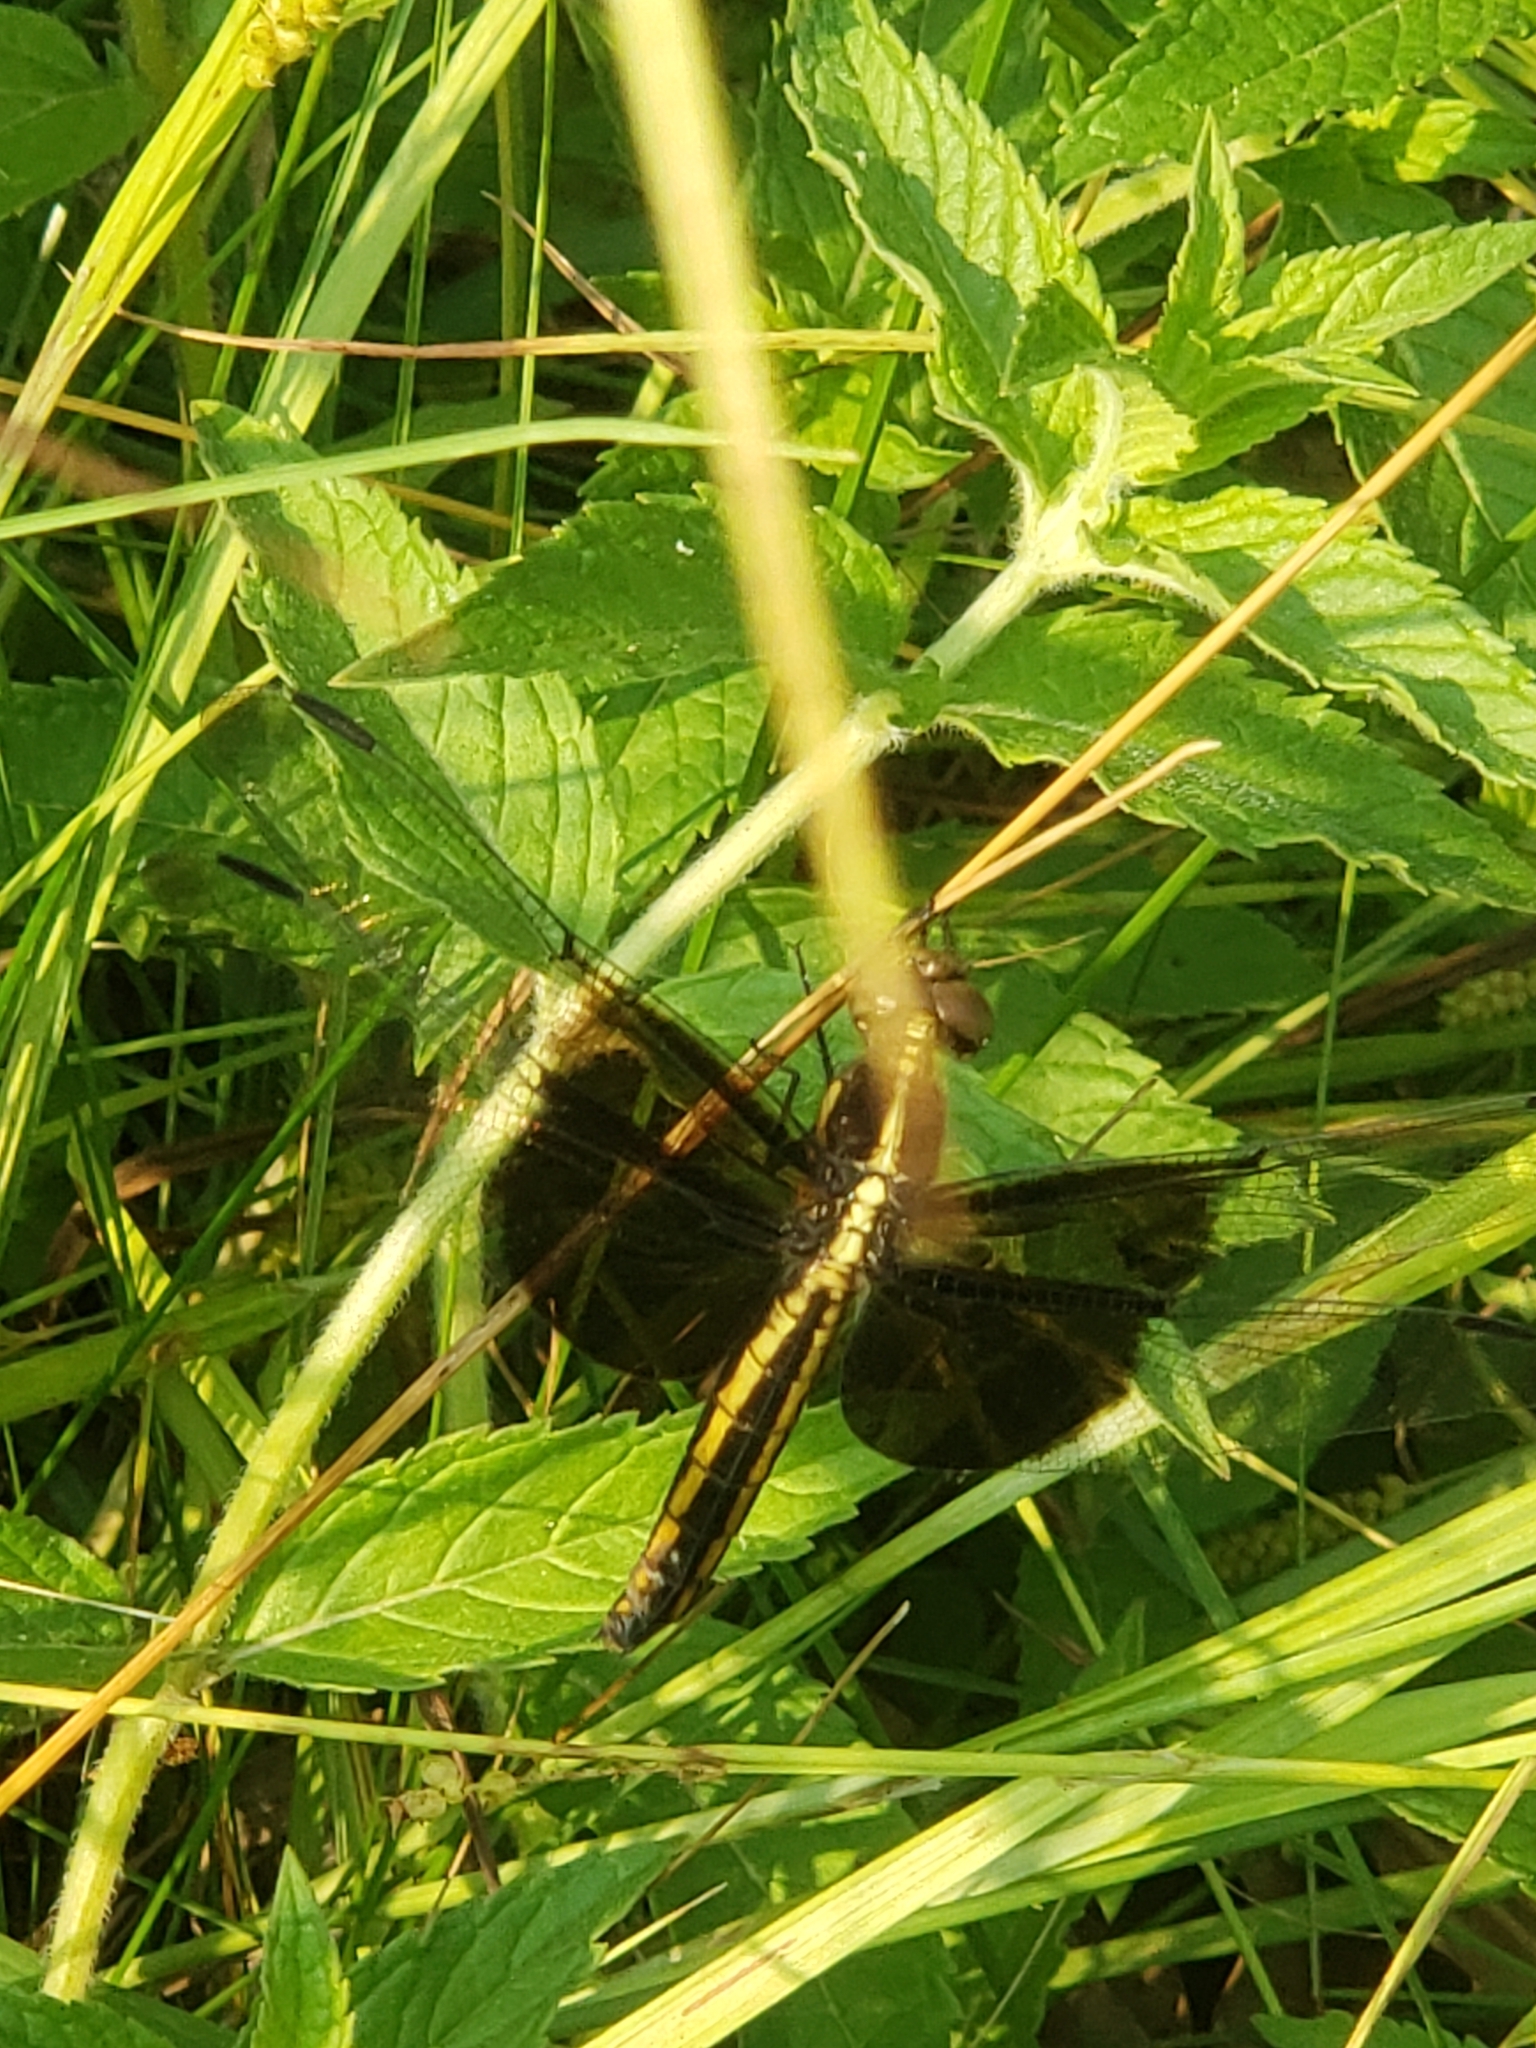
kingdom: Animalia
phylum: Arthropoda
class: Insecta
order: Odonata
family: Libellulidae
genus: Libellula
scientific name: Libellula luctuosa
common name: Widow skimmer
